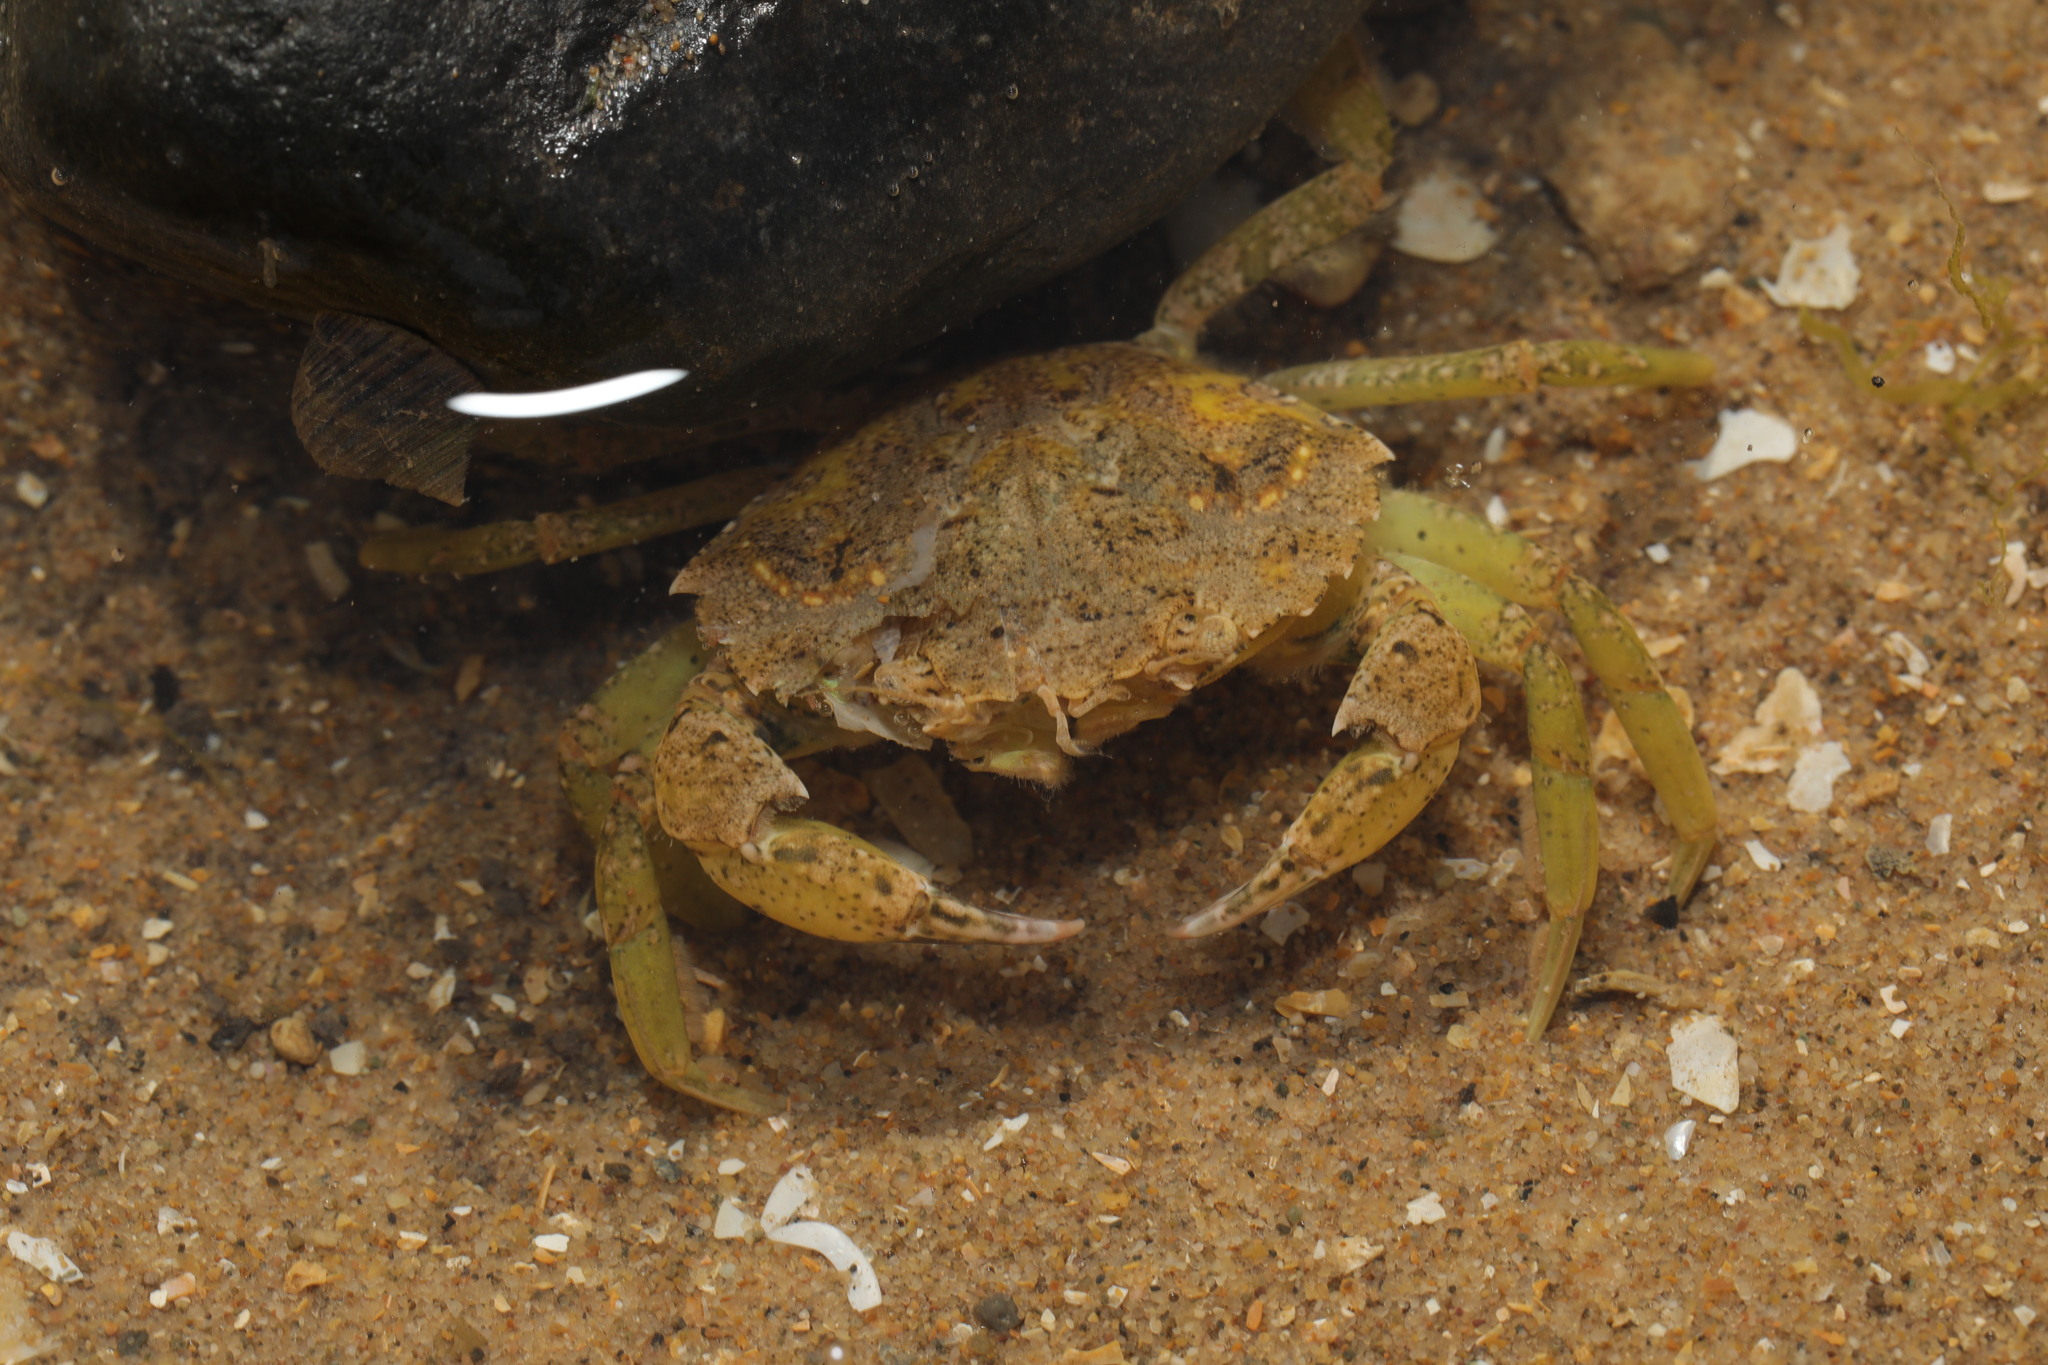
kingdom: Animalia
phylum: Arthropoda
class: Malacostraca
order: Decapoda
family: Carcinidae
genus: Carcinus
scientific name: Carcinus maenas
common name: European green crab
